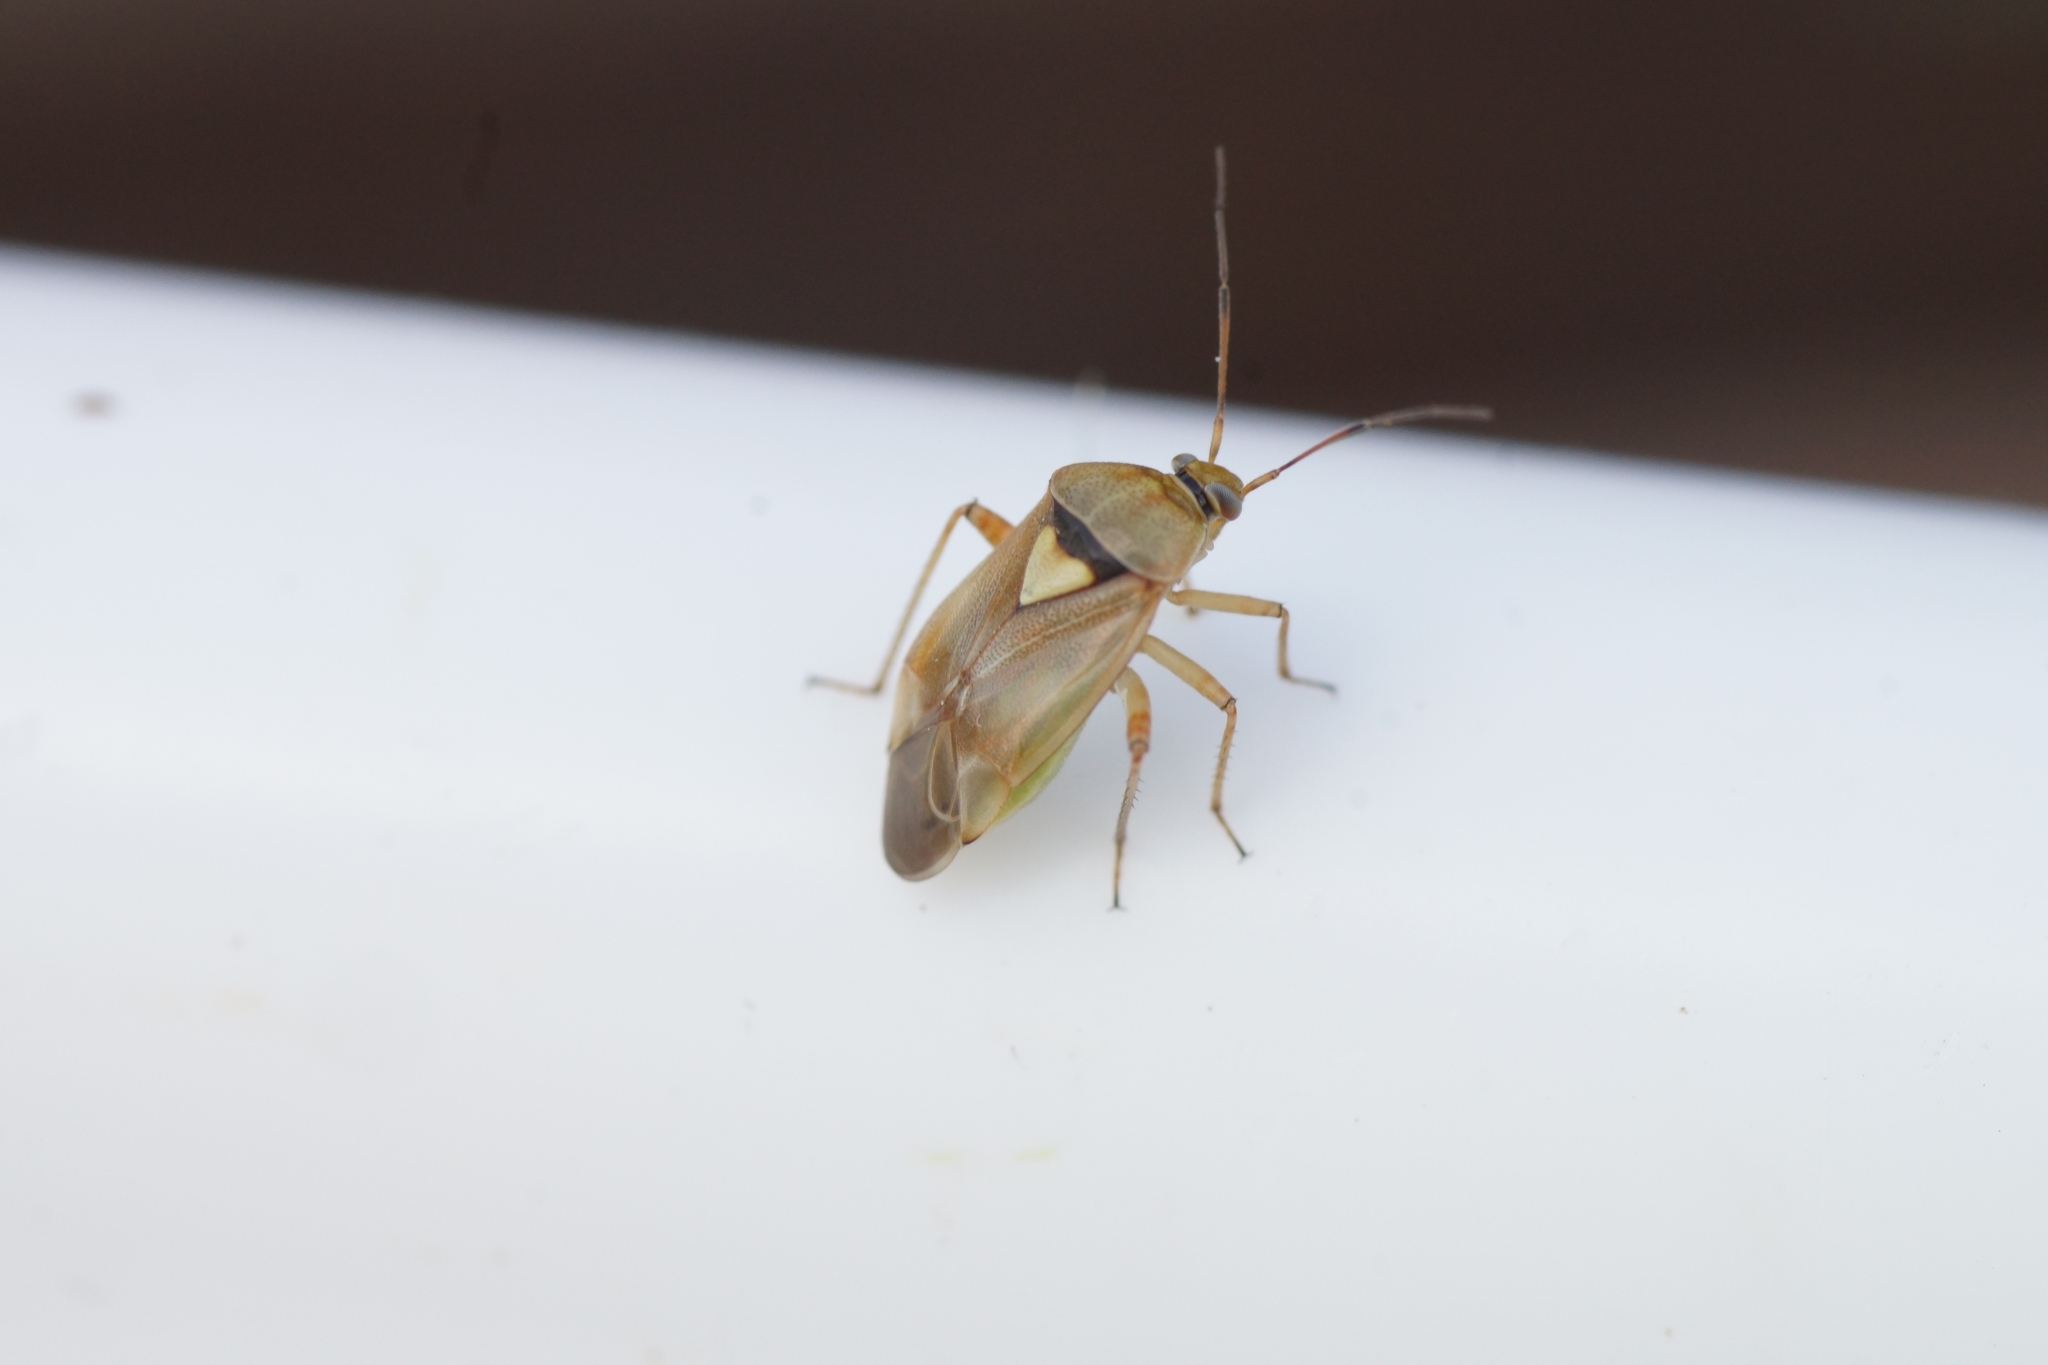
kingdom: Animalia
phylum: Arthropoda
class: Insecta
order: Hemiptera
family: Miridae
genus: Lygus
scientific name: Lygus pratensis
